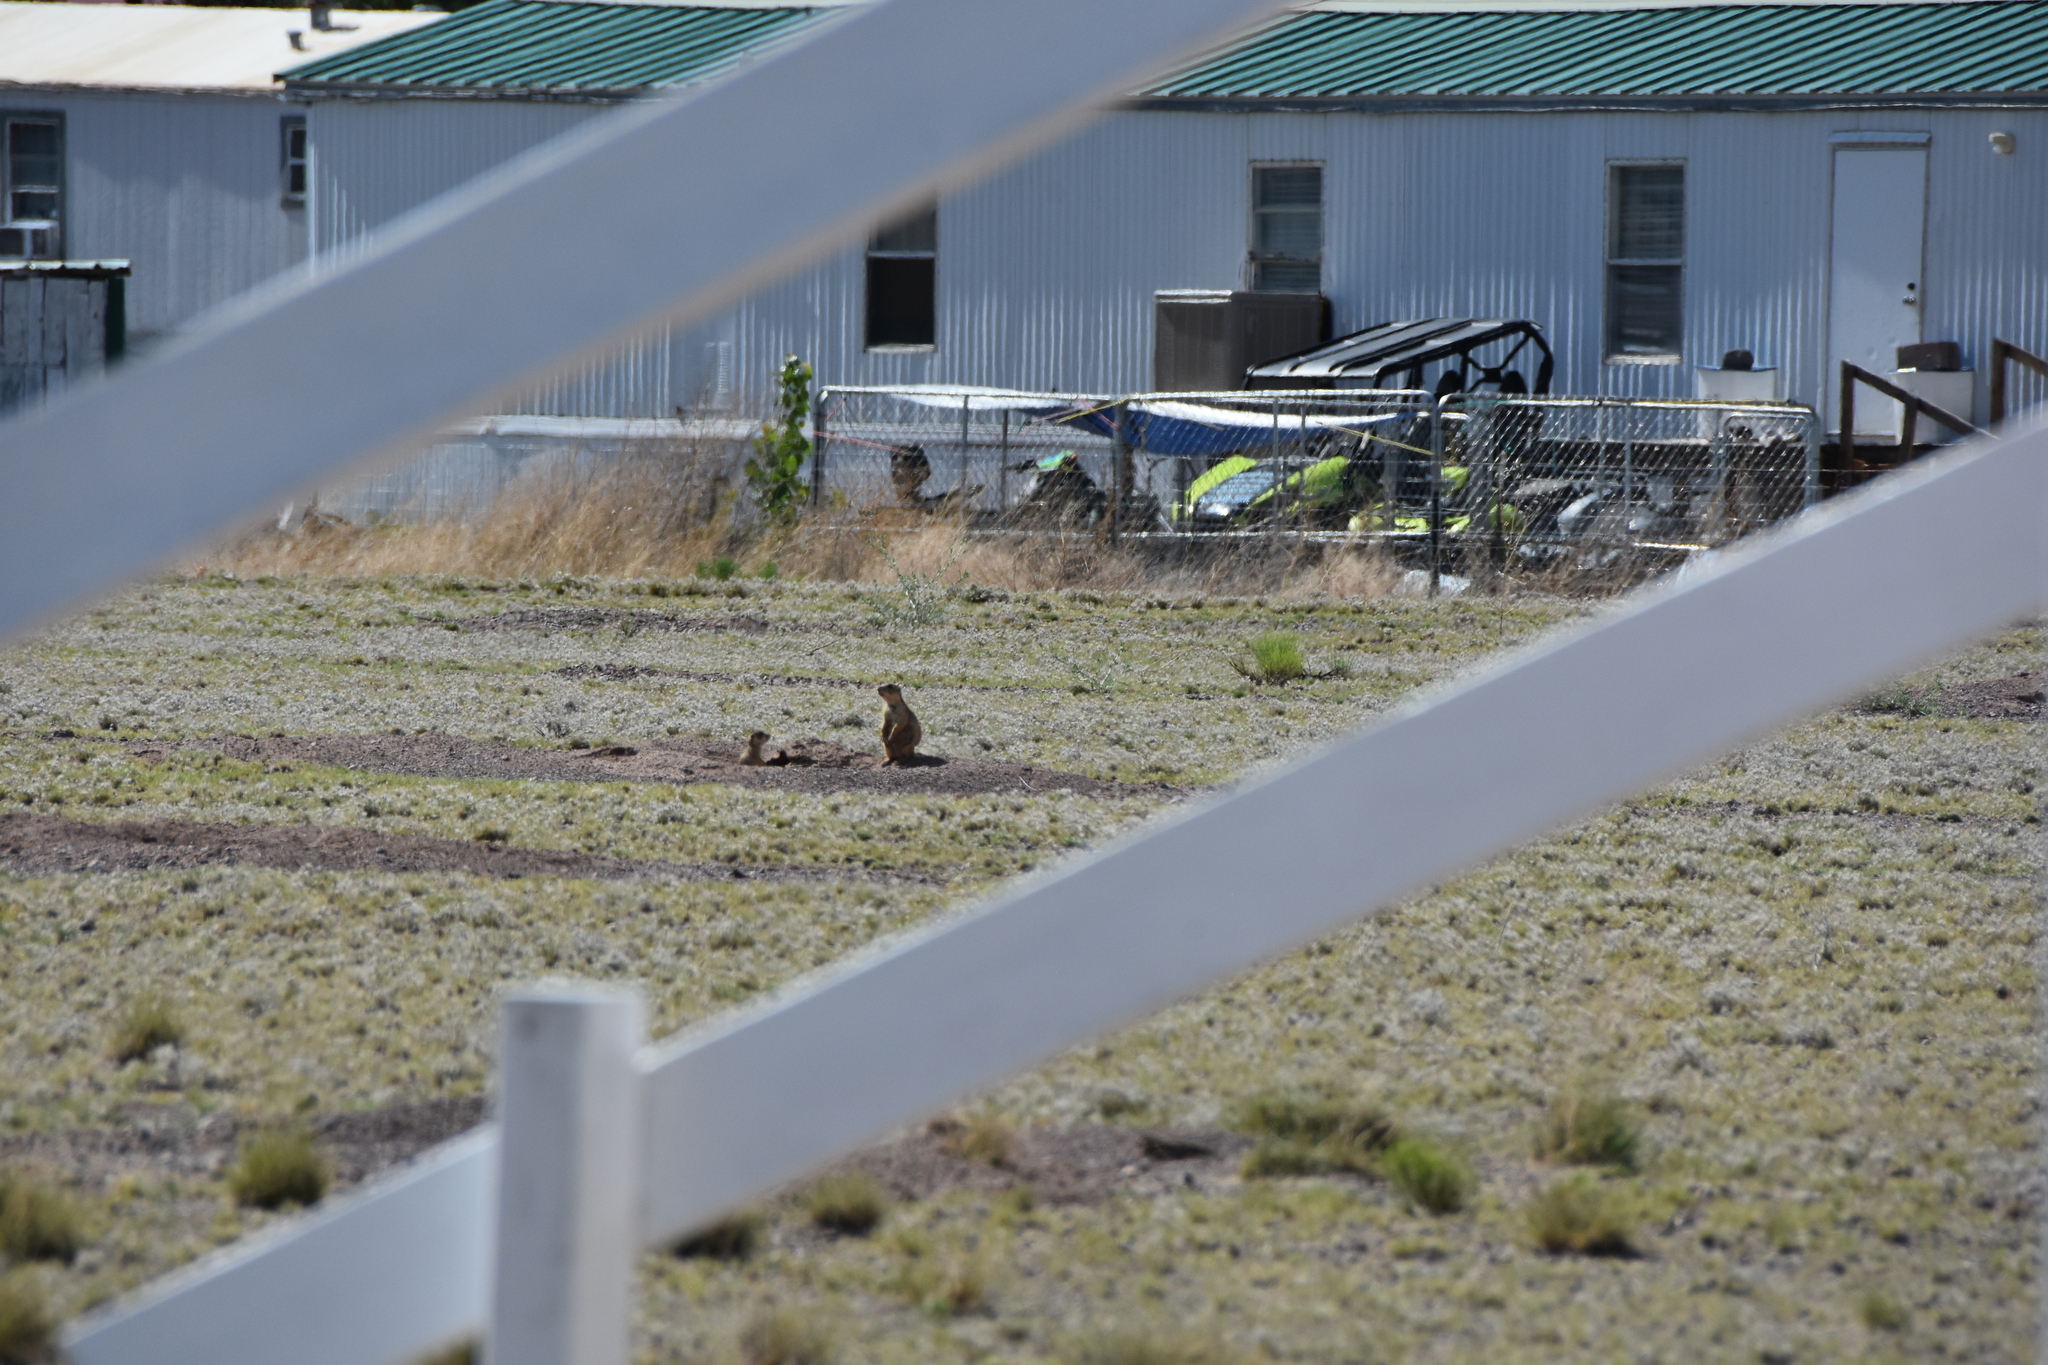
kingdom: Animalia
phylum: Chordata
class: Mammalia
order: Rodentia
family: Sciuridae
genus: Cynomys
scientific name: Cynomys gunnisoni
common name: Gunnison's prairie dog
